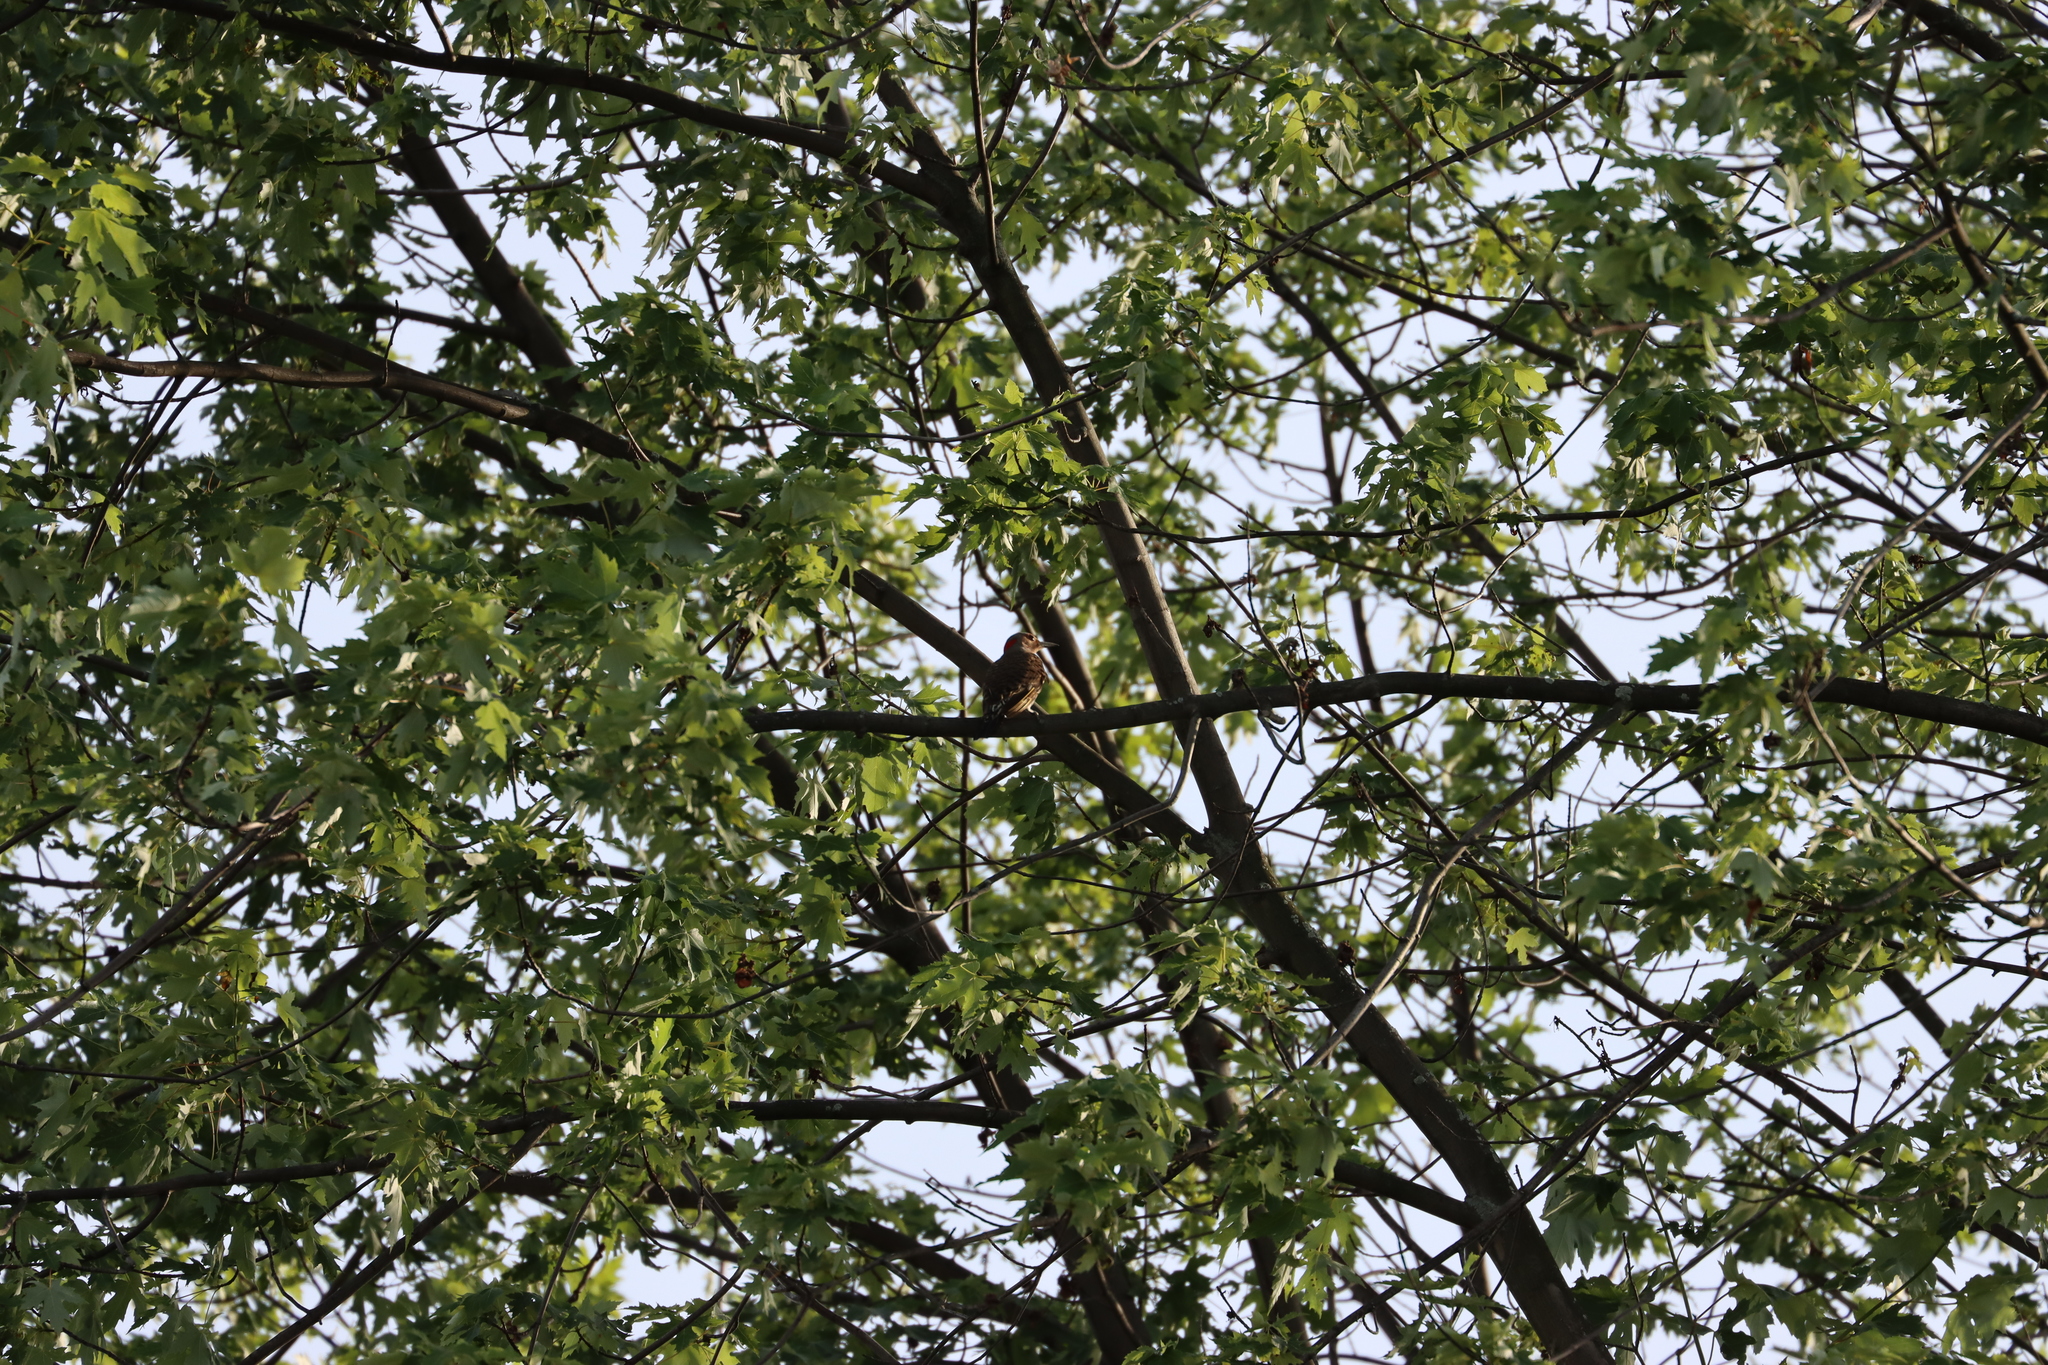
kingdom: Animalia
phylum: Chordata
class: Aves
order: Piciformes
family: Picidae
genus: Colaptes
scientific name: Colaptes auratus
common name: Northern flicker
